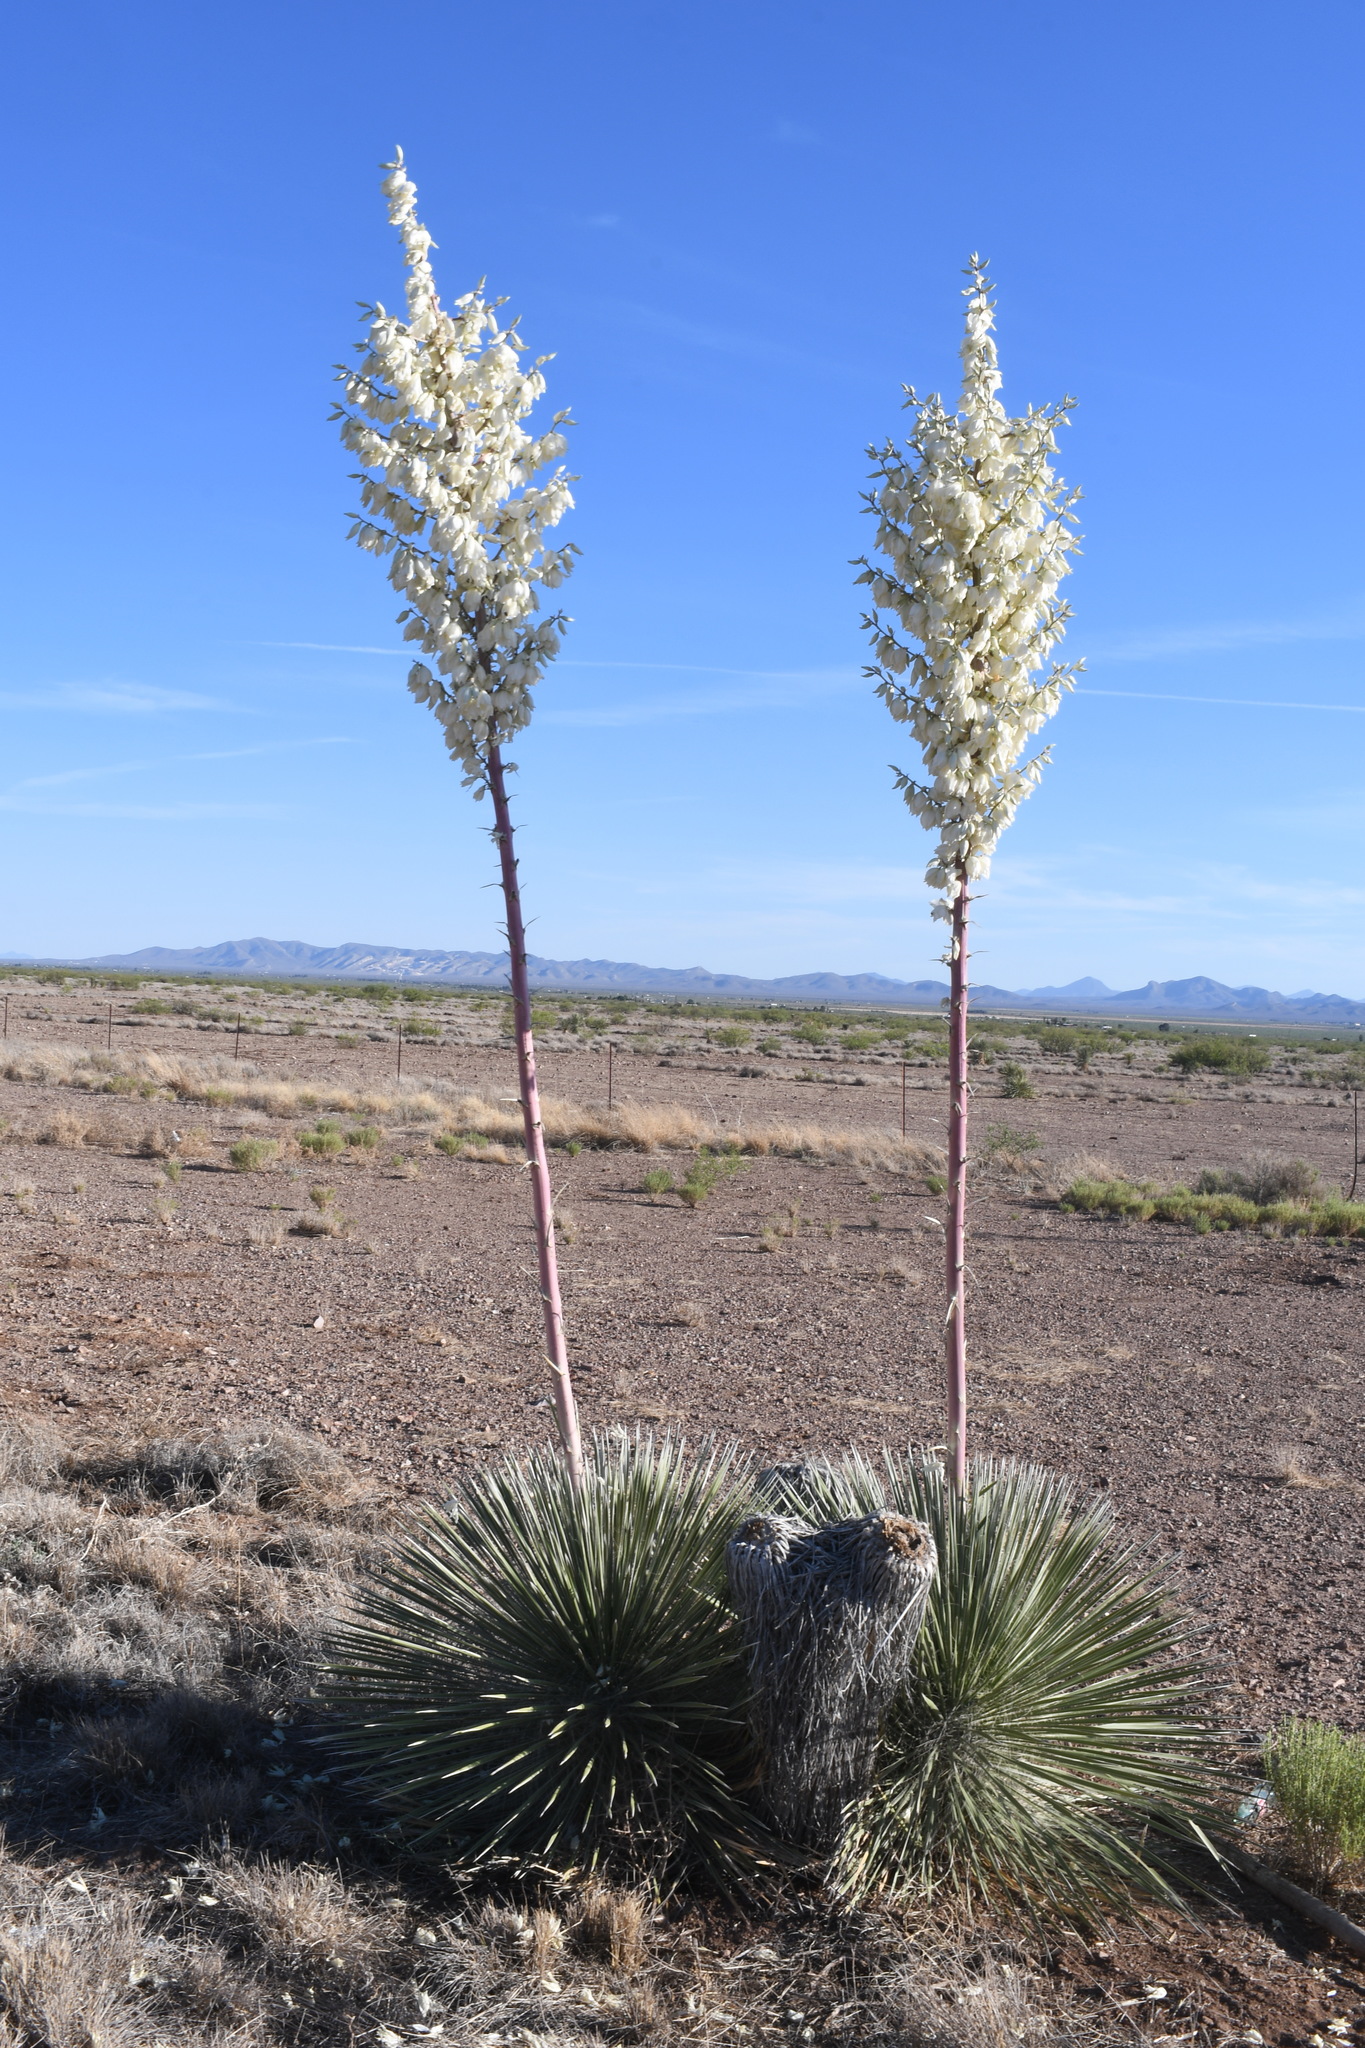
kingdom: Plantae
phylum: Tracheophyta
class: Liliopsida
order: Asparagales
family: Asparagaceae
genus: Yucca
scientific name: Yucca elata
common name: Palmella
